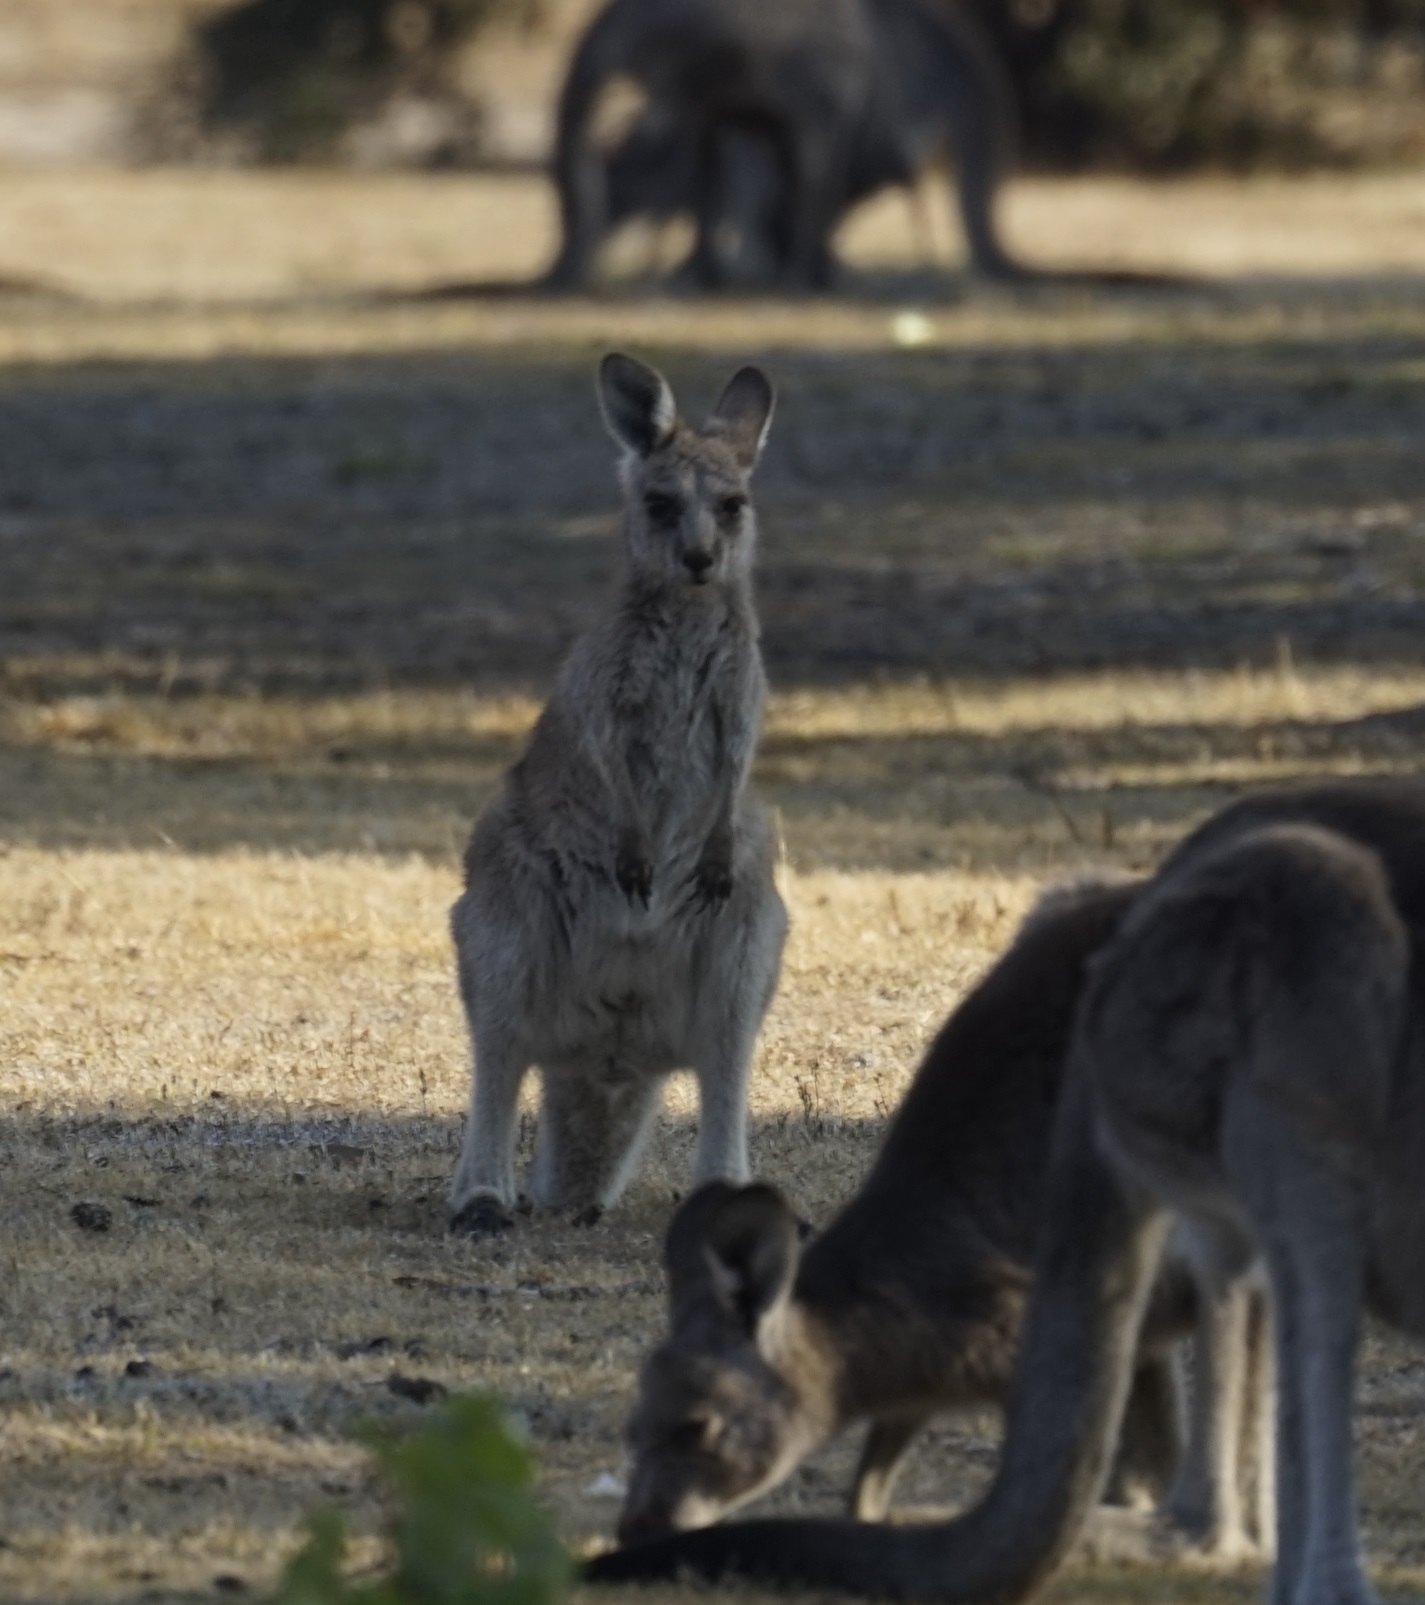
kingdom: Animalia
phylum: Chordata
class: Mammalia
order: Diprotodontia
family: Macropodidae
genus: Macropus
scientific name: Macropus giganteus
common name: Eastern grey kangaroo
